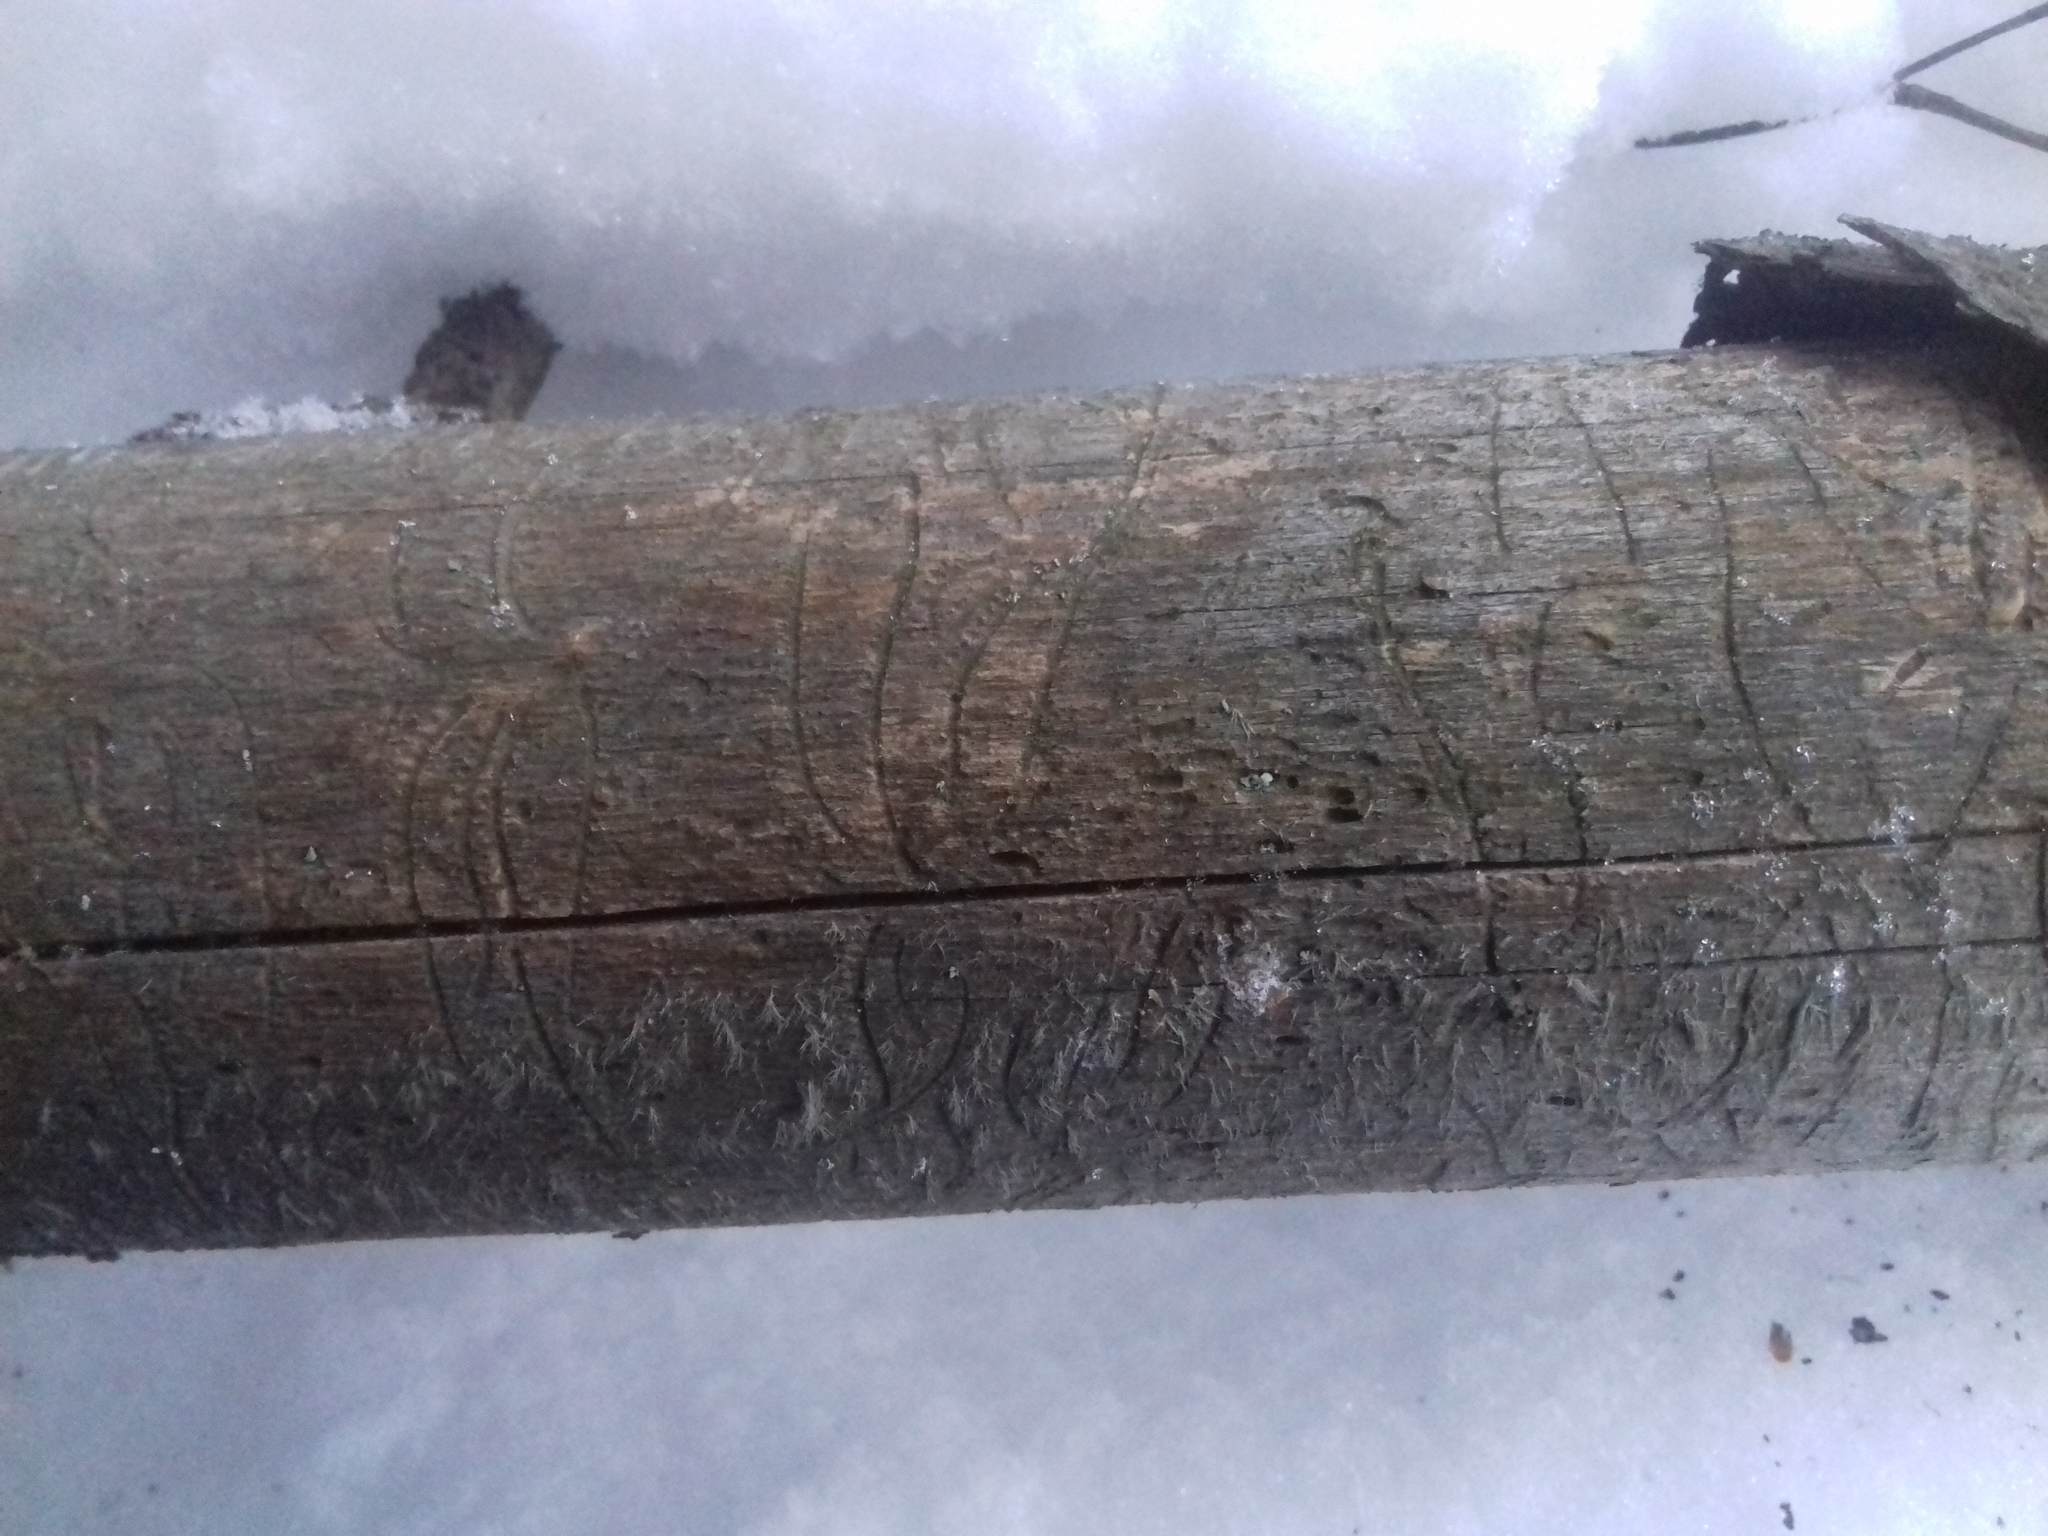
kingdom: Animalia
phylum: Arthropoda
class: Insecta
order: Coleoptera
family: Curculionidae
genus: Pityogenes
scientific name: Pityogenes chalcographus
